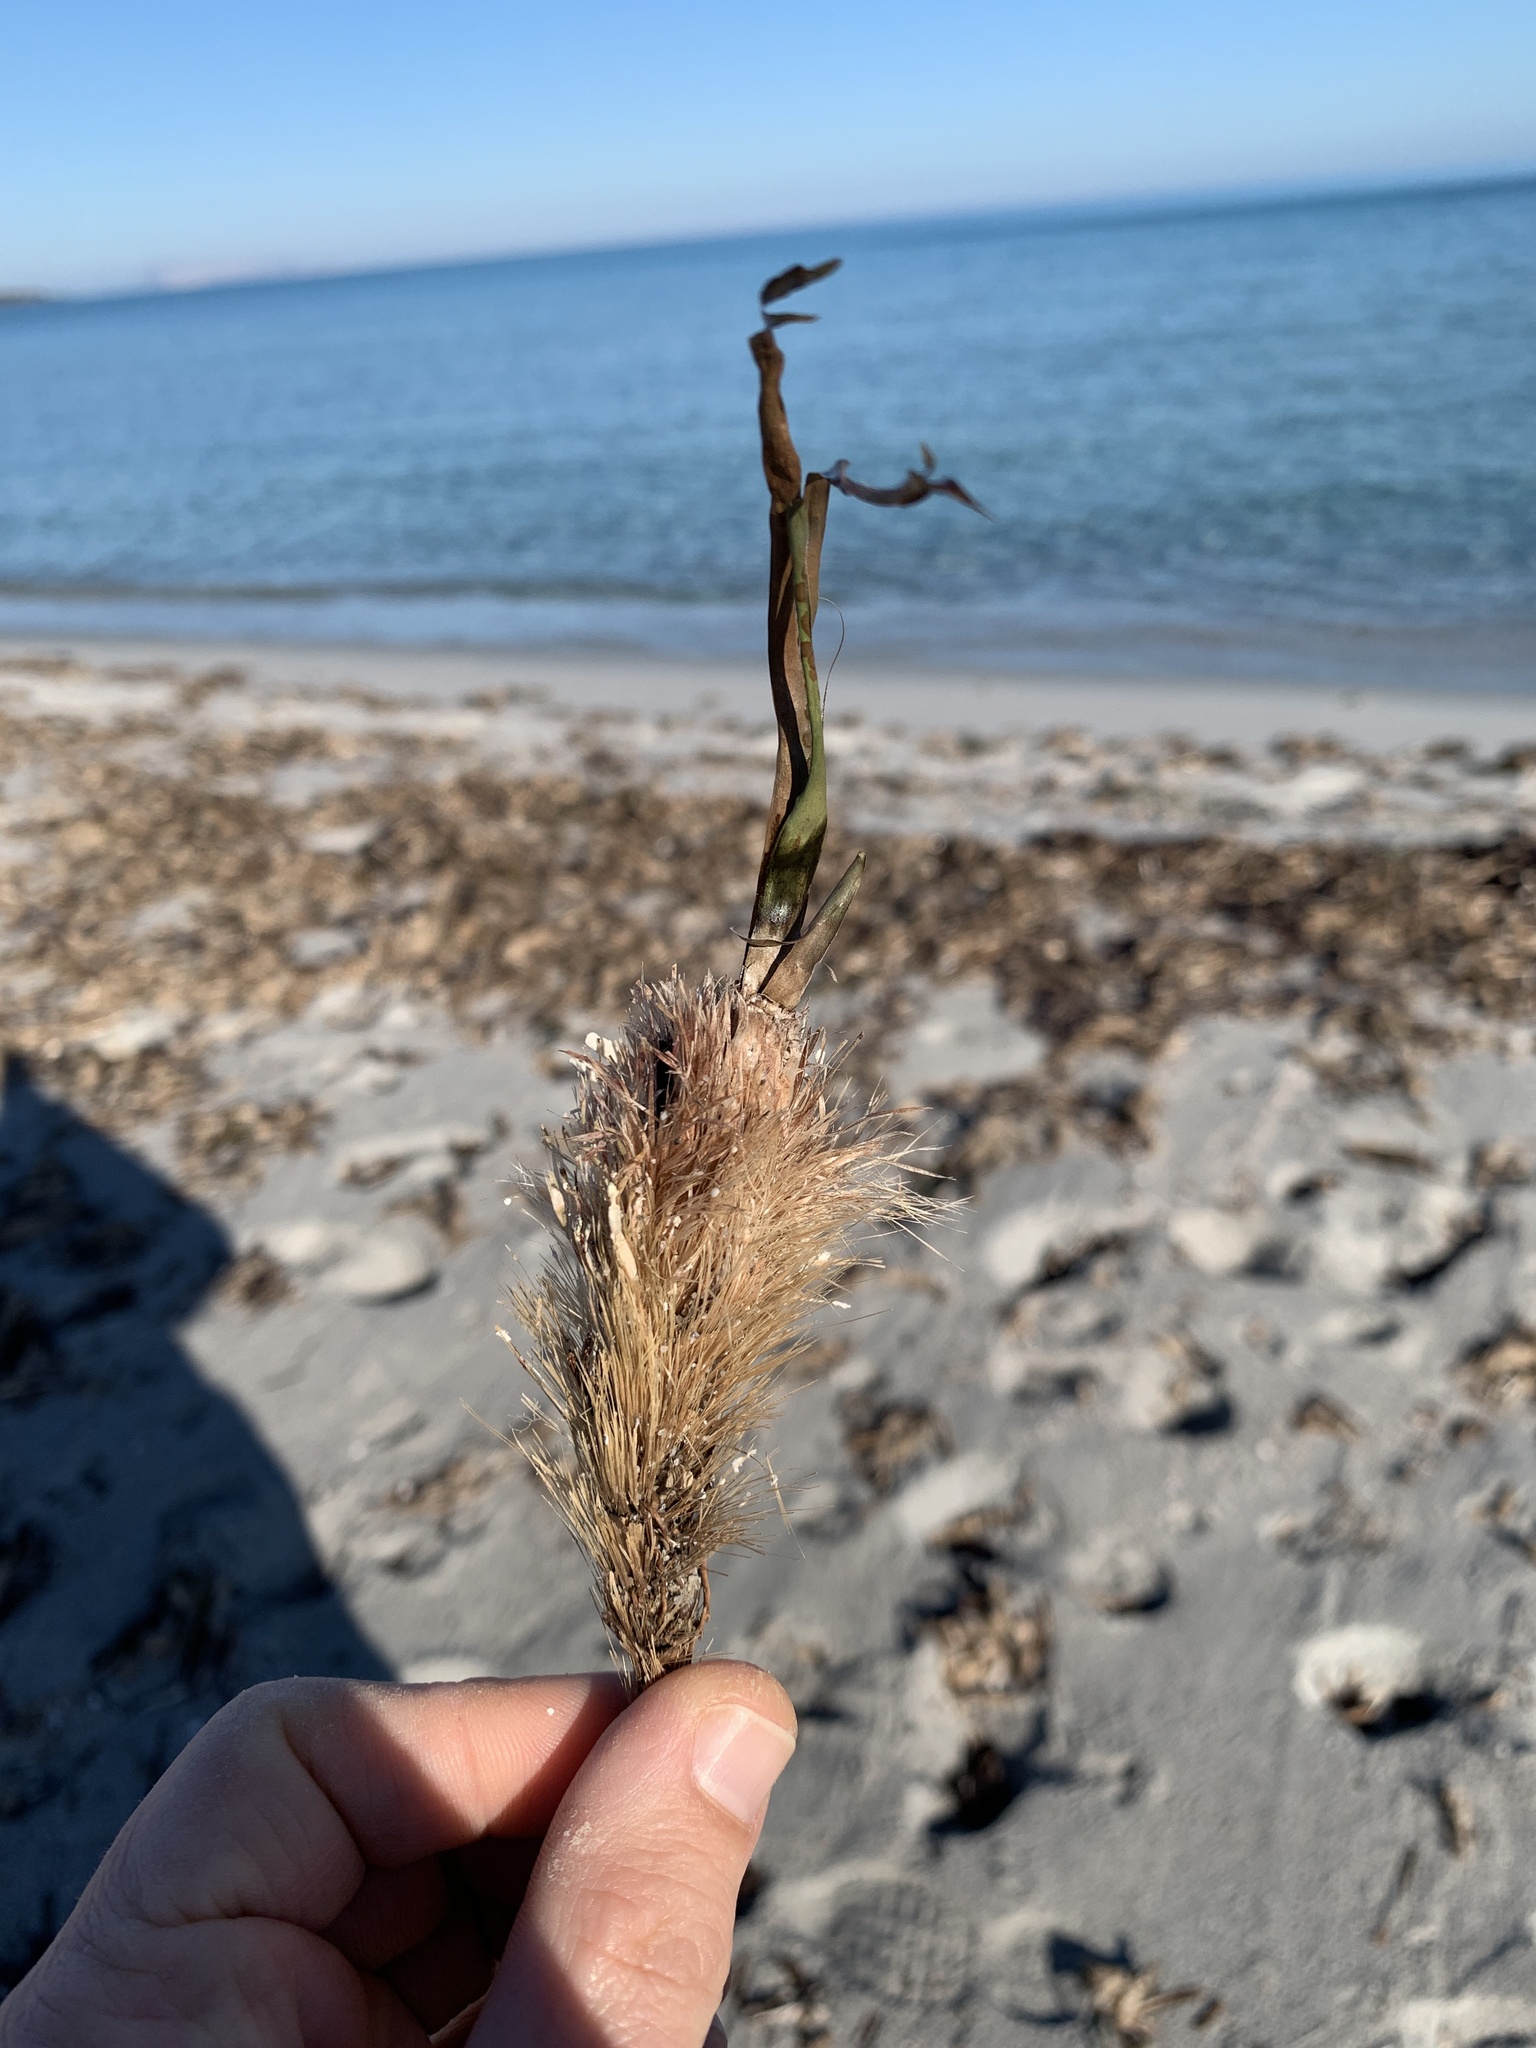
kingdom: Plantae
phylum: Tracheophyta
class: Liliopsida
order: Alismatales
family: Posidoniaceae
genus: Posidonia
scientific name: Posidonia oceanica
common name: Mediterranean tapeweed
